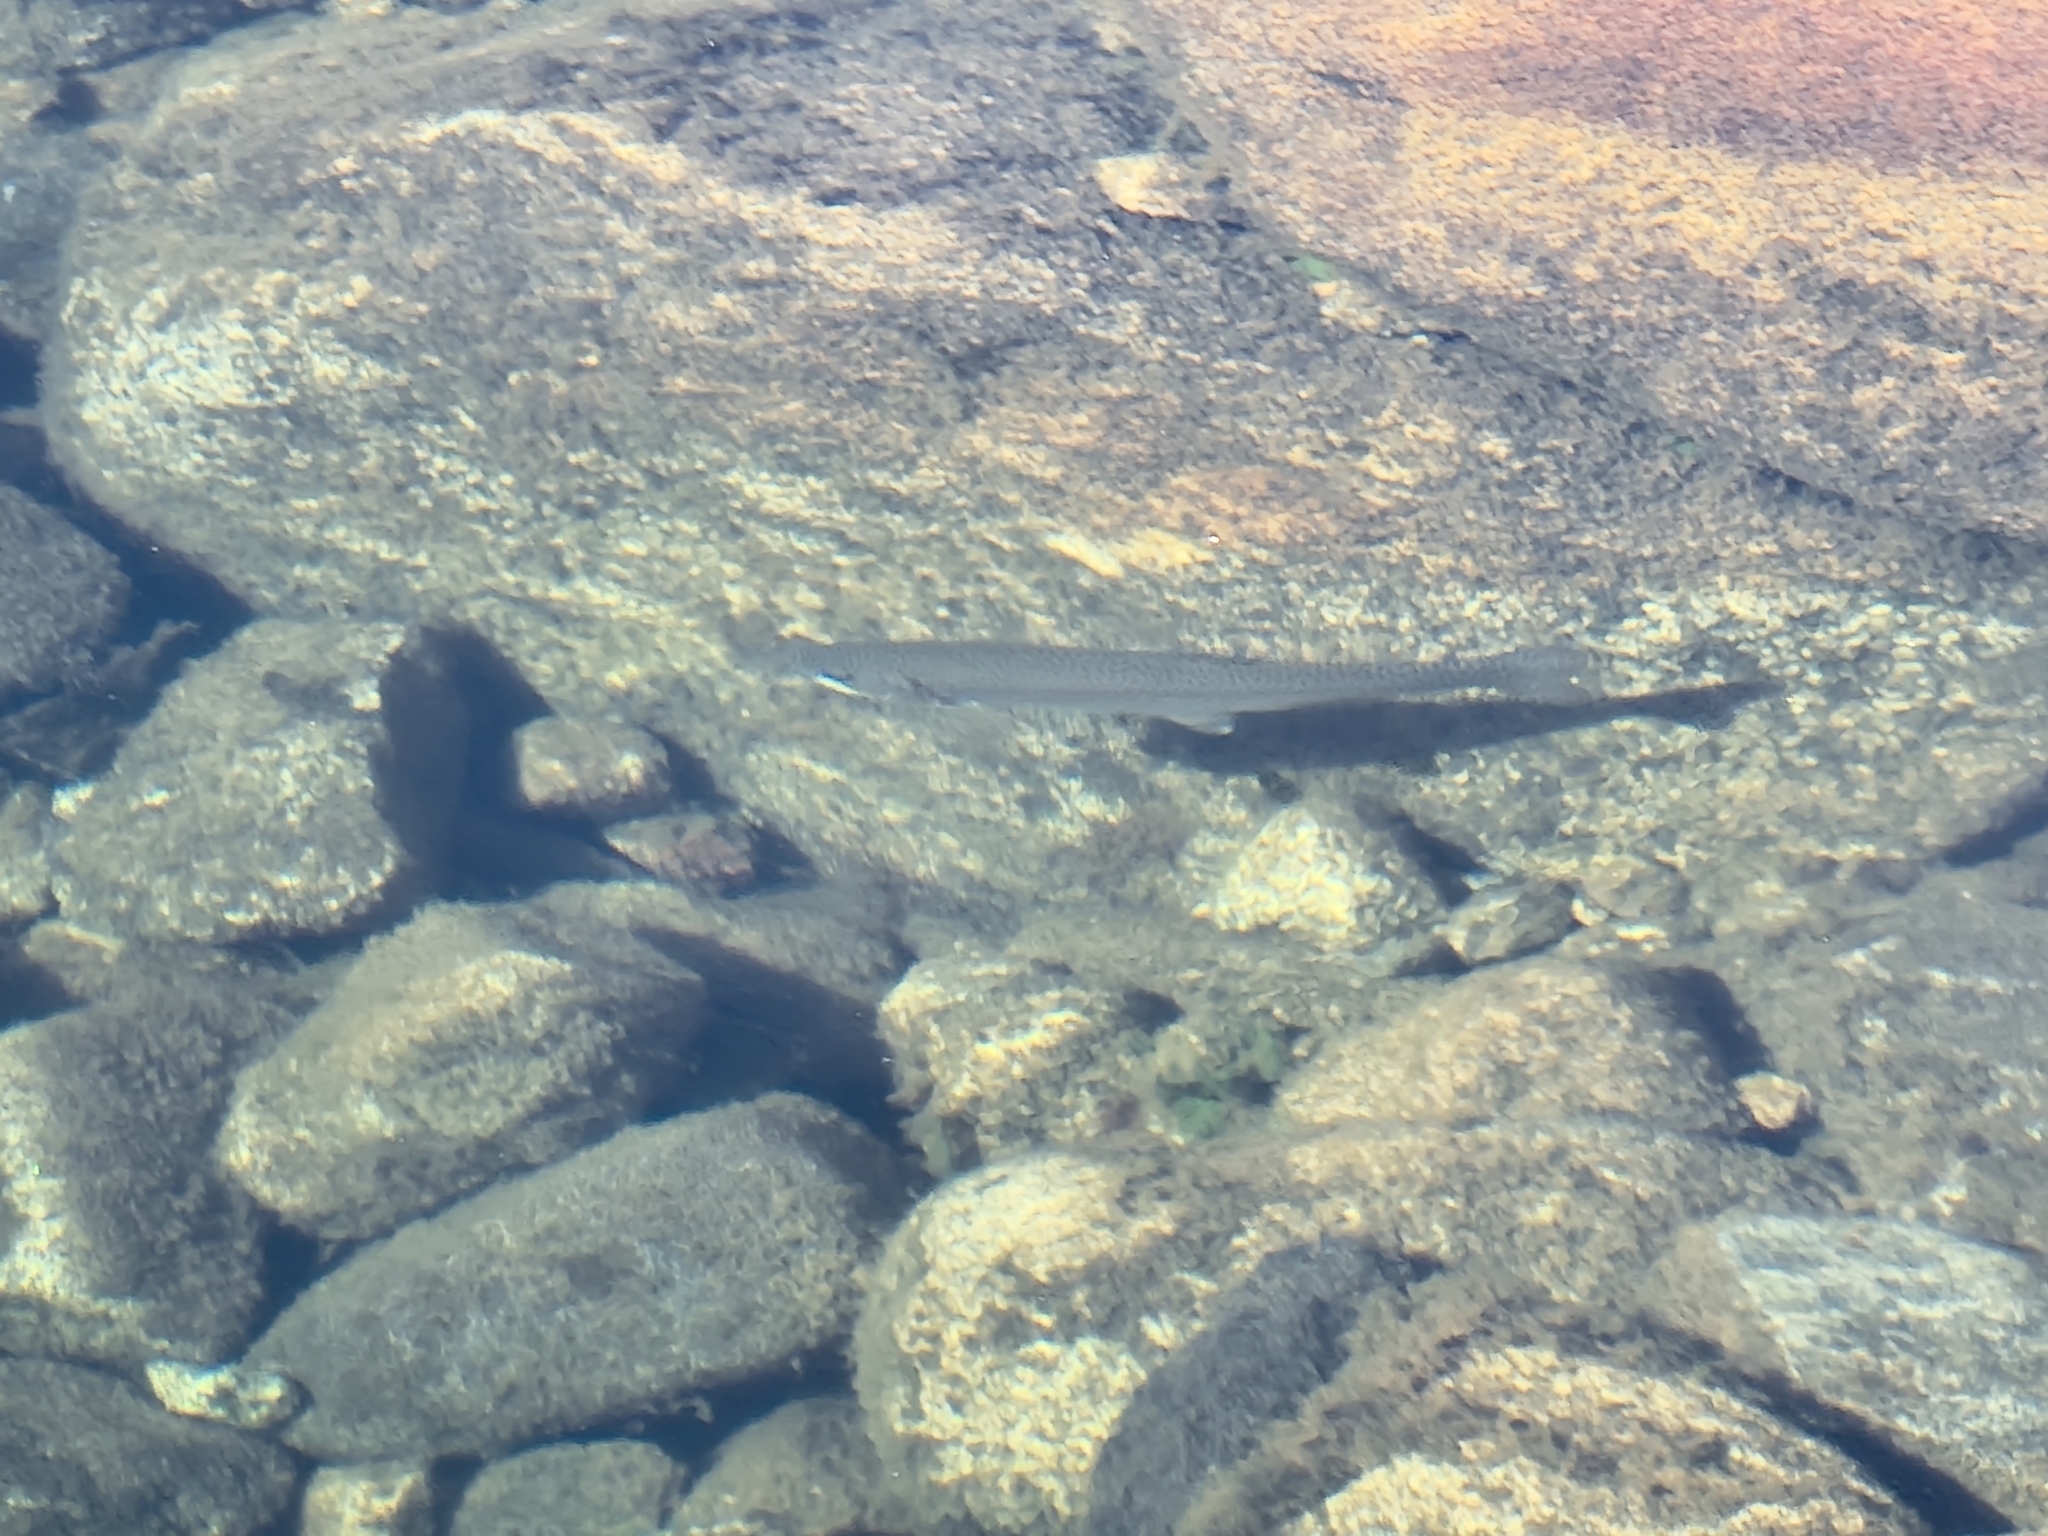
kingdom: Animalia
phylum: Chordata
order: Salmoniformes
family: Salmonidae
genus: Oncorhynchus
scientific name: Oncorhynchus mykiss
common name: Rainbow trout
